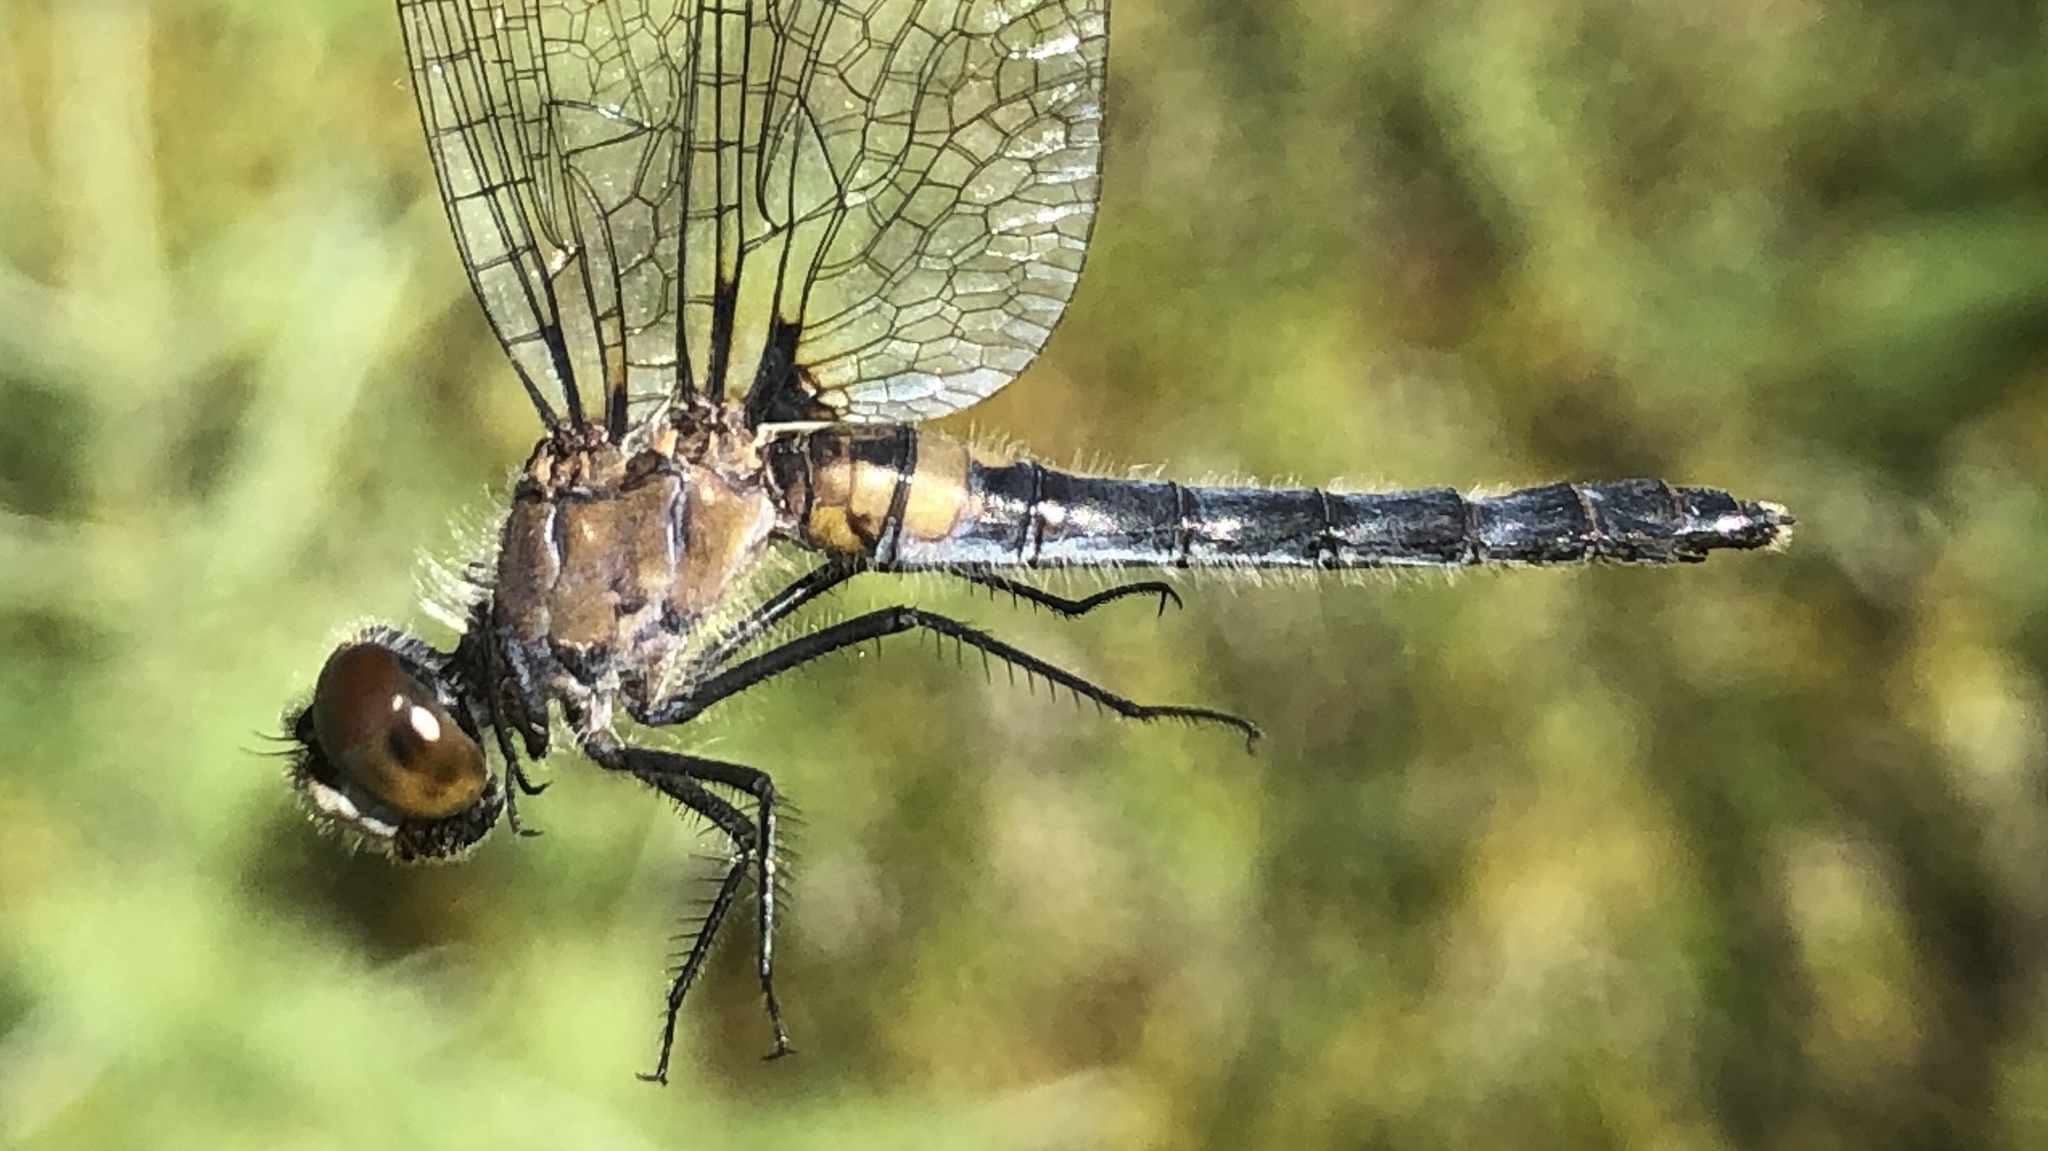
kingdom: Animalia
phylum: Arthropoda
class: Insecta
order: Odonata
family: Libellulidae
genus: Leucorrhinia
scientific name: Leucorrhinia frigida
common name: Frosted whiteface
